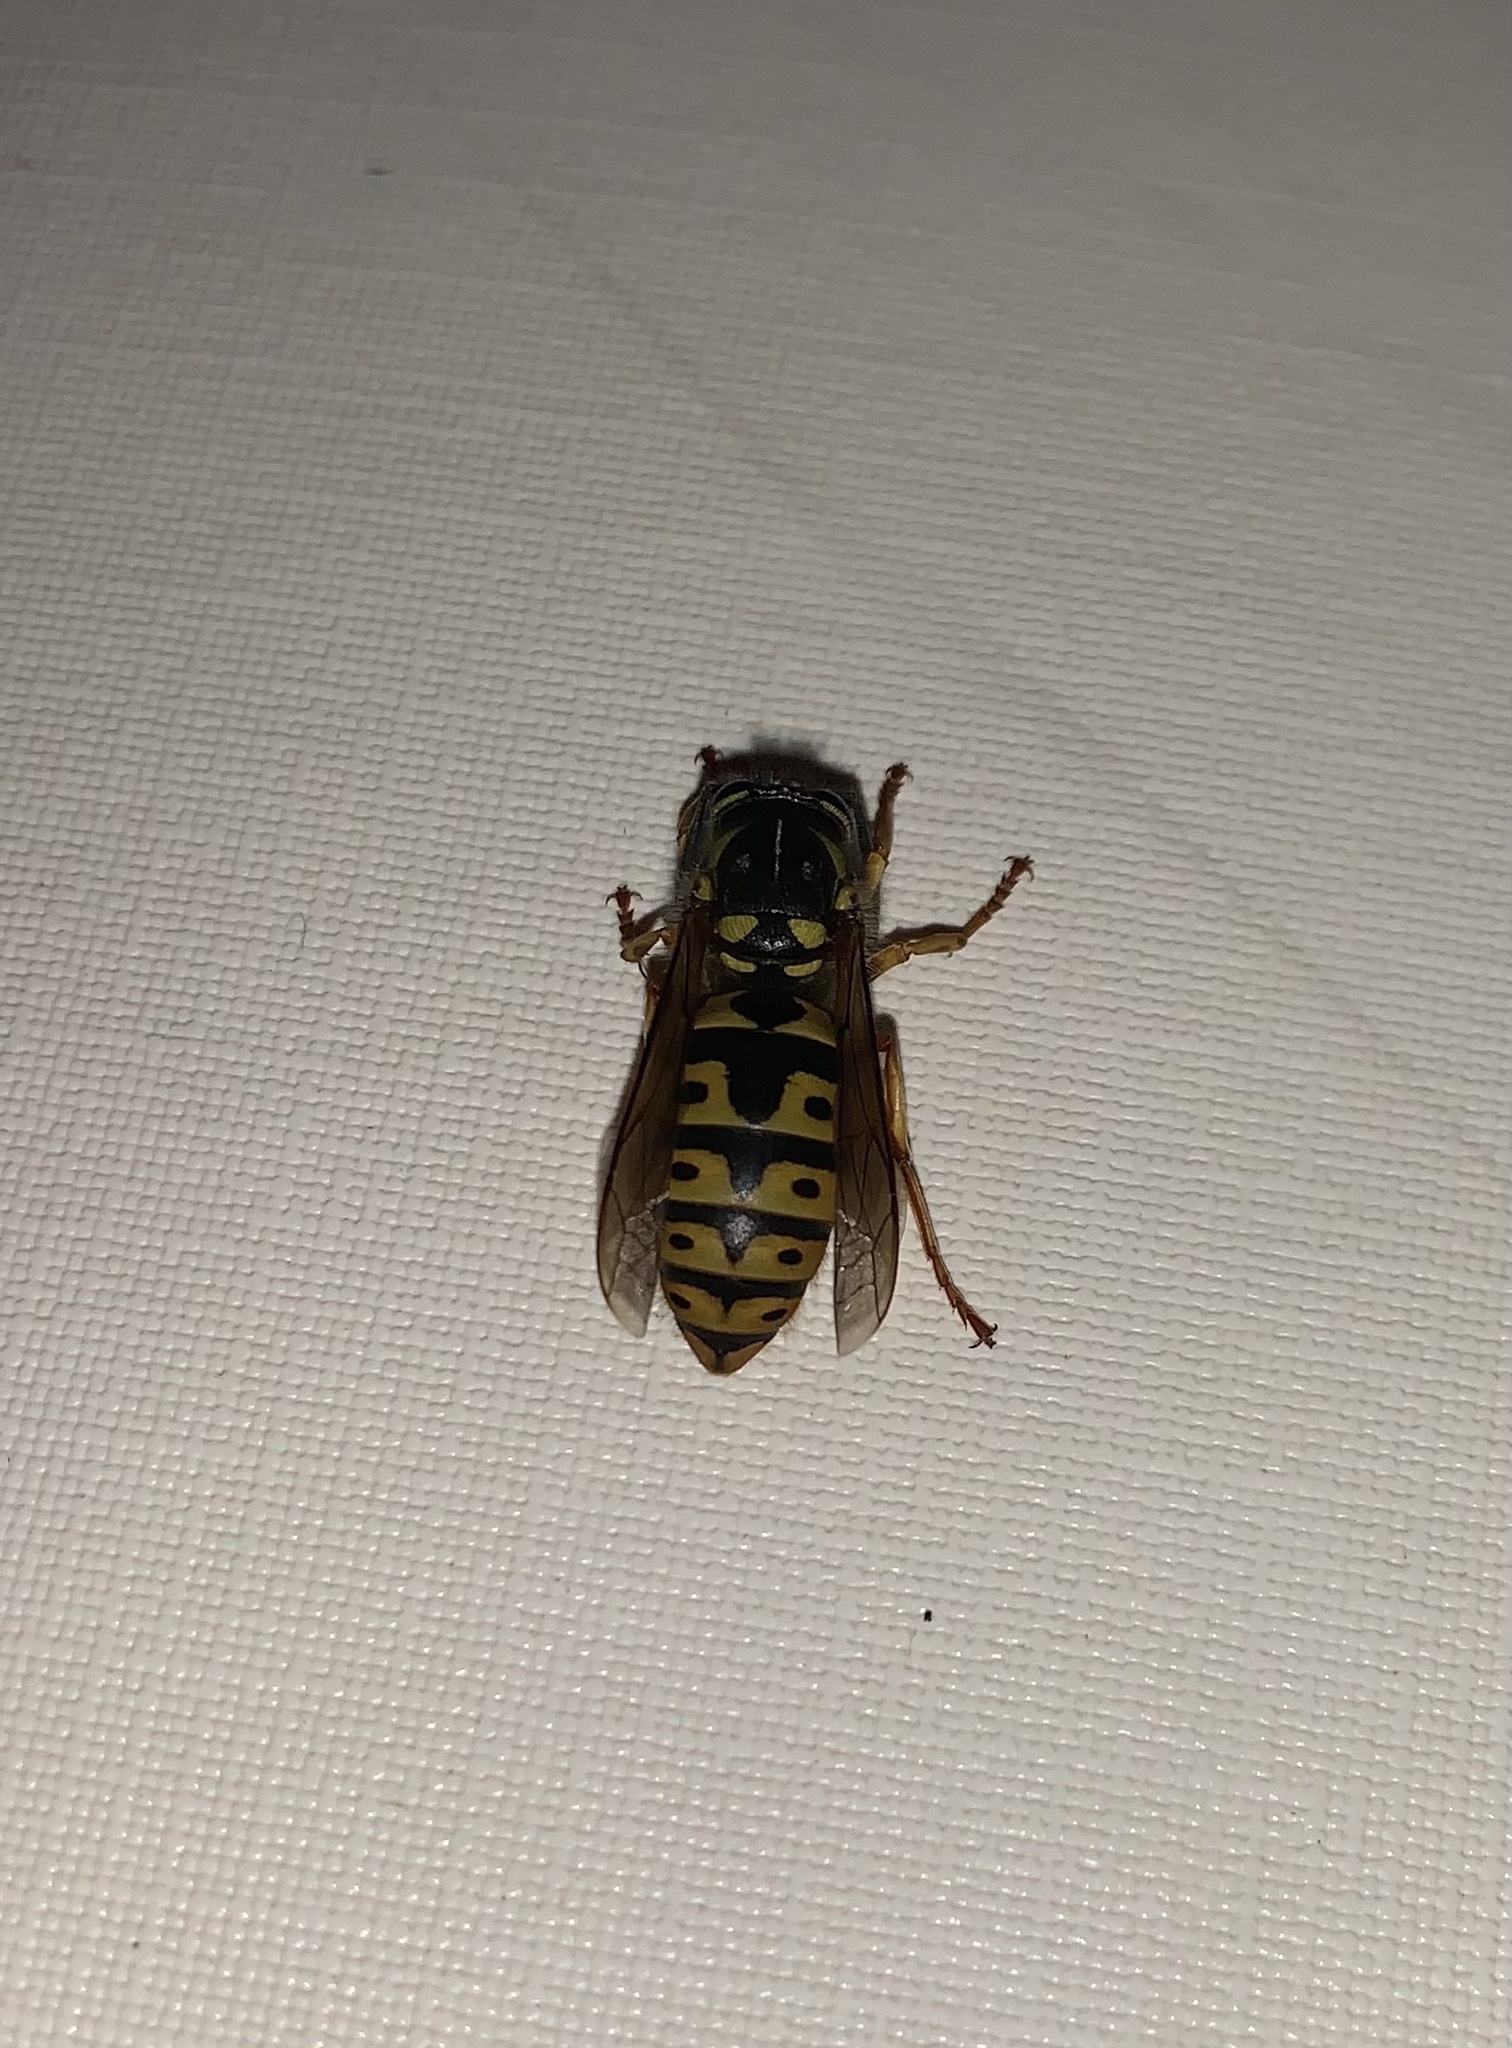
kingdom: Animalia
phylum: Arthropoda
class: Insecta
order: Hymenoptera
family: Vespidae
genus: Vespula
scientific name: Vespula germanica
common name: German wasp
